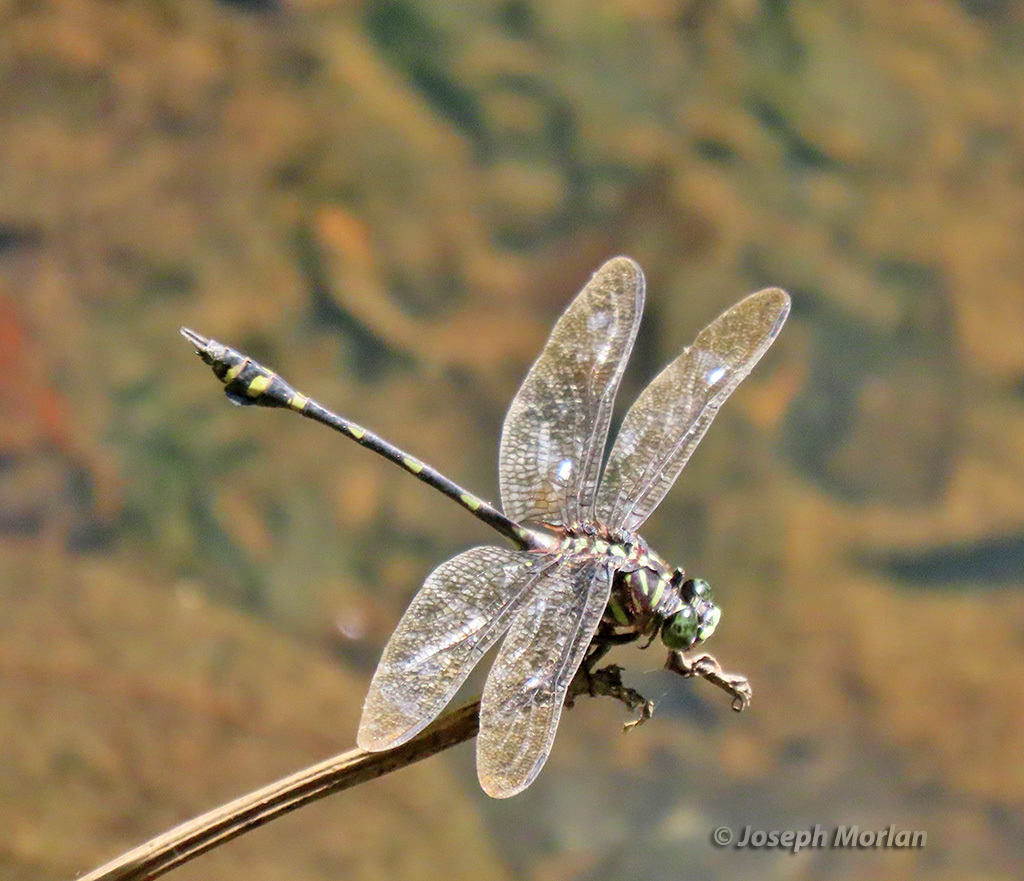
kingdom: Animalia
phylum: Arthropoda
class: Insecta
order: Odonata
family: Gomphidae
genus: Ictinogomphus
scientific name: Ictinogomphus lieftincki
